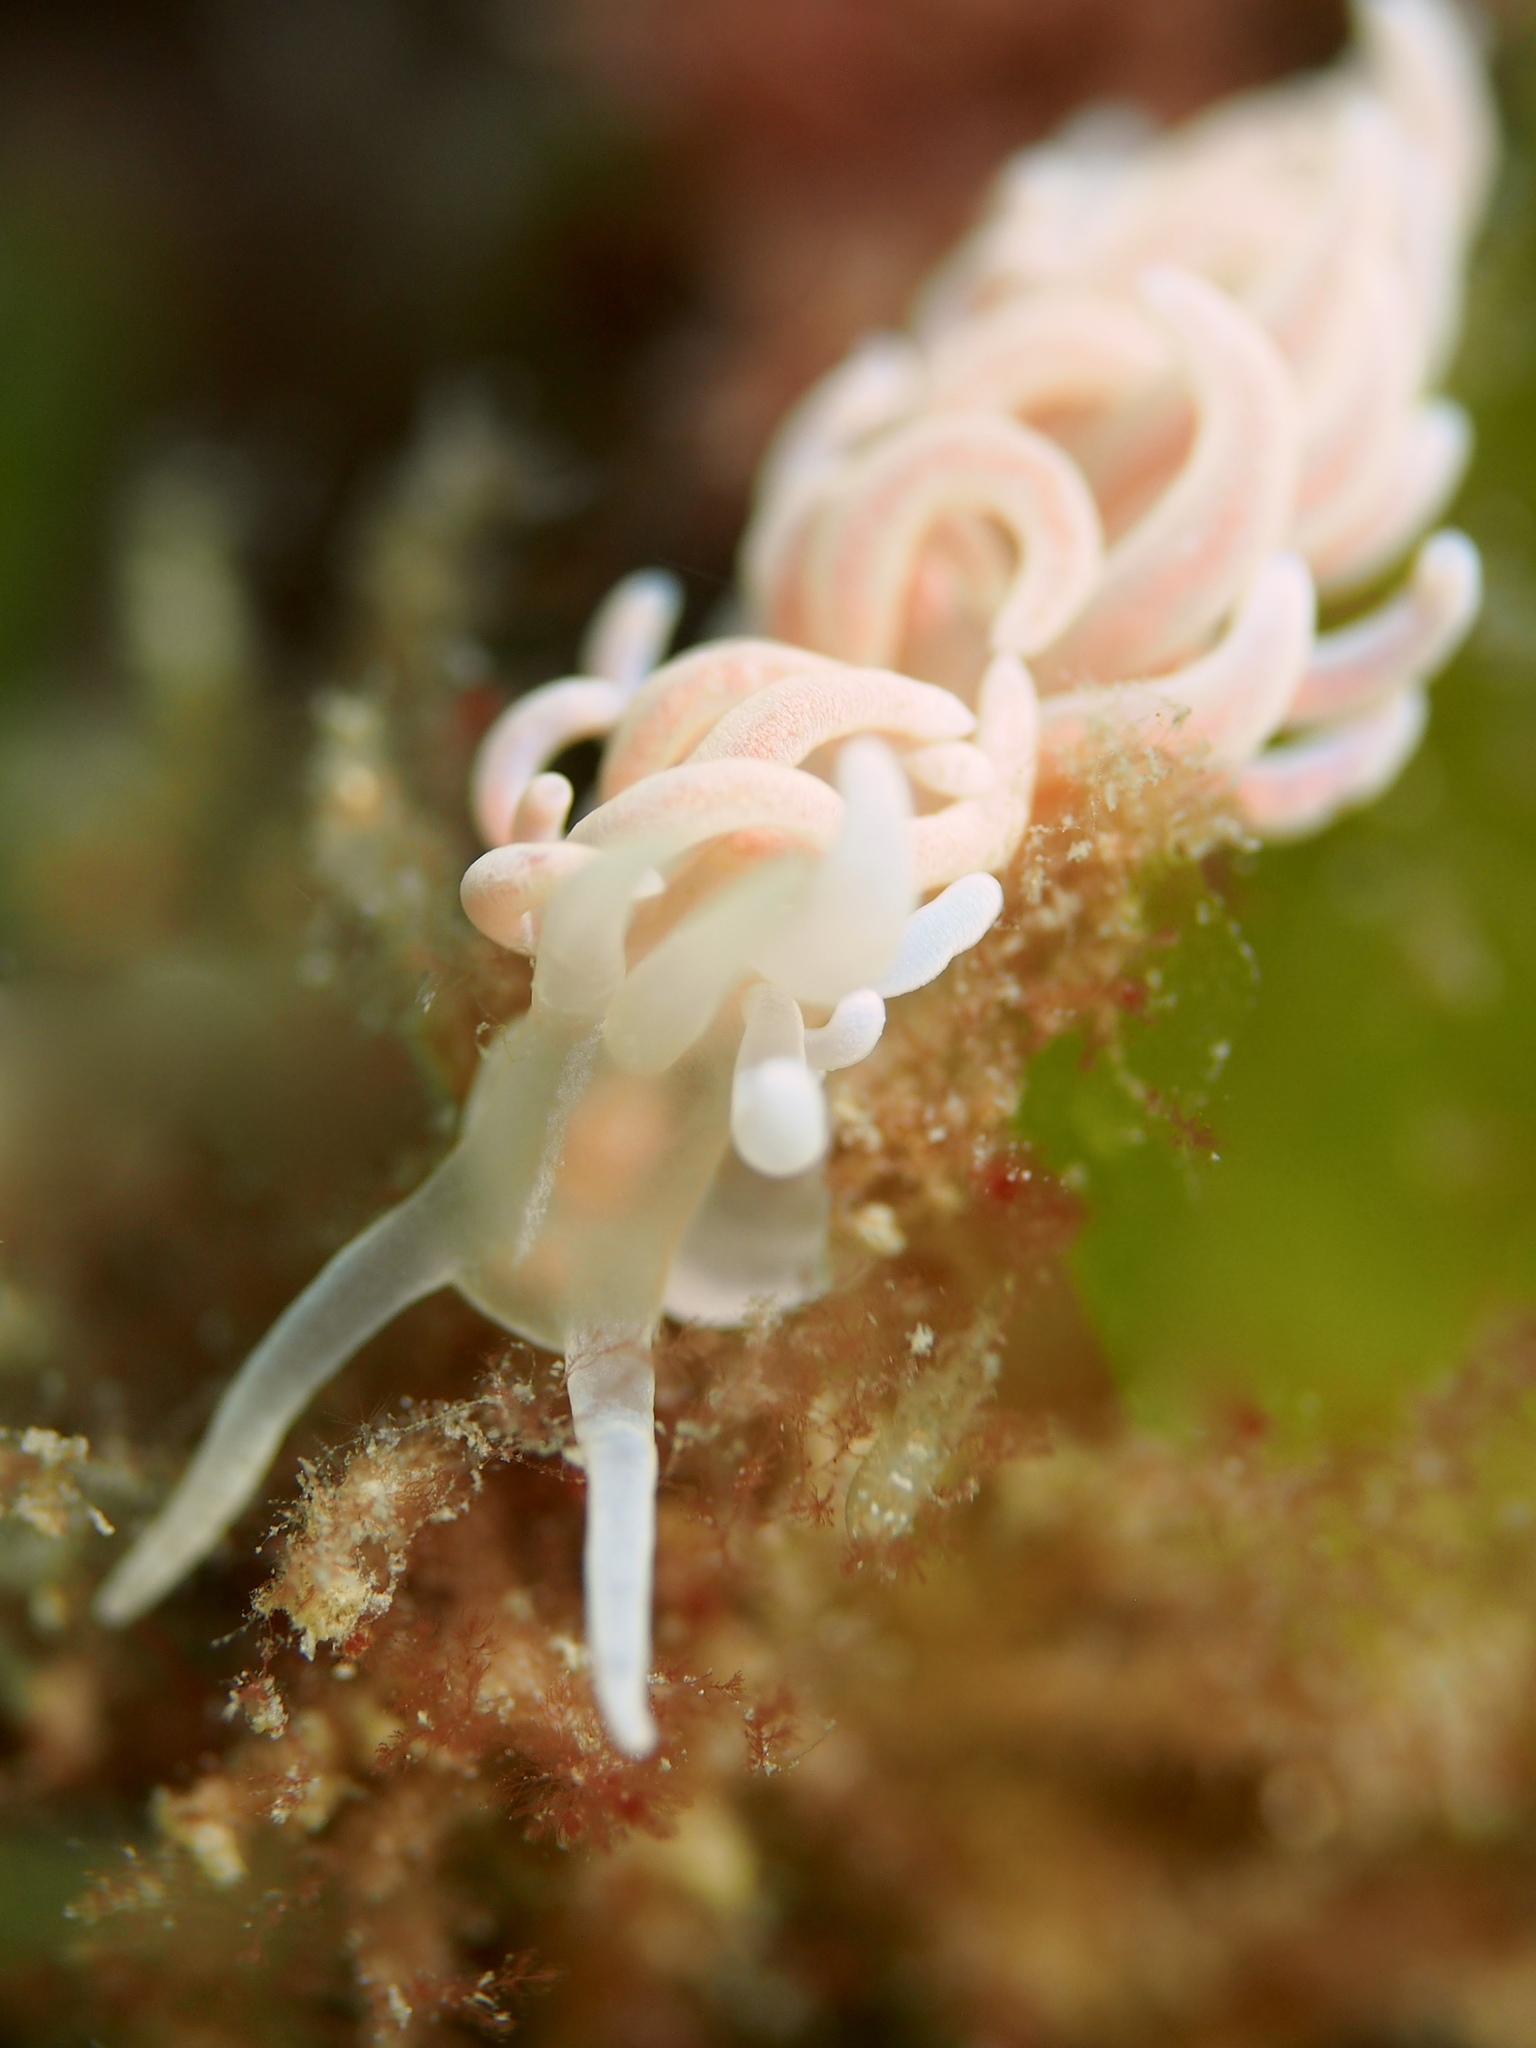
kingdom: Animalia
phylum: Mollusca
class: Gastropoda
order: Nudibranchia
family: Myrrhinidae
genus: Phyllodesmium
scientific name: Phyllodesmium serratum
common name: Coral nudibranch
